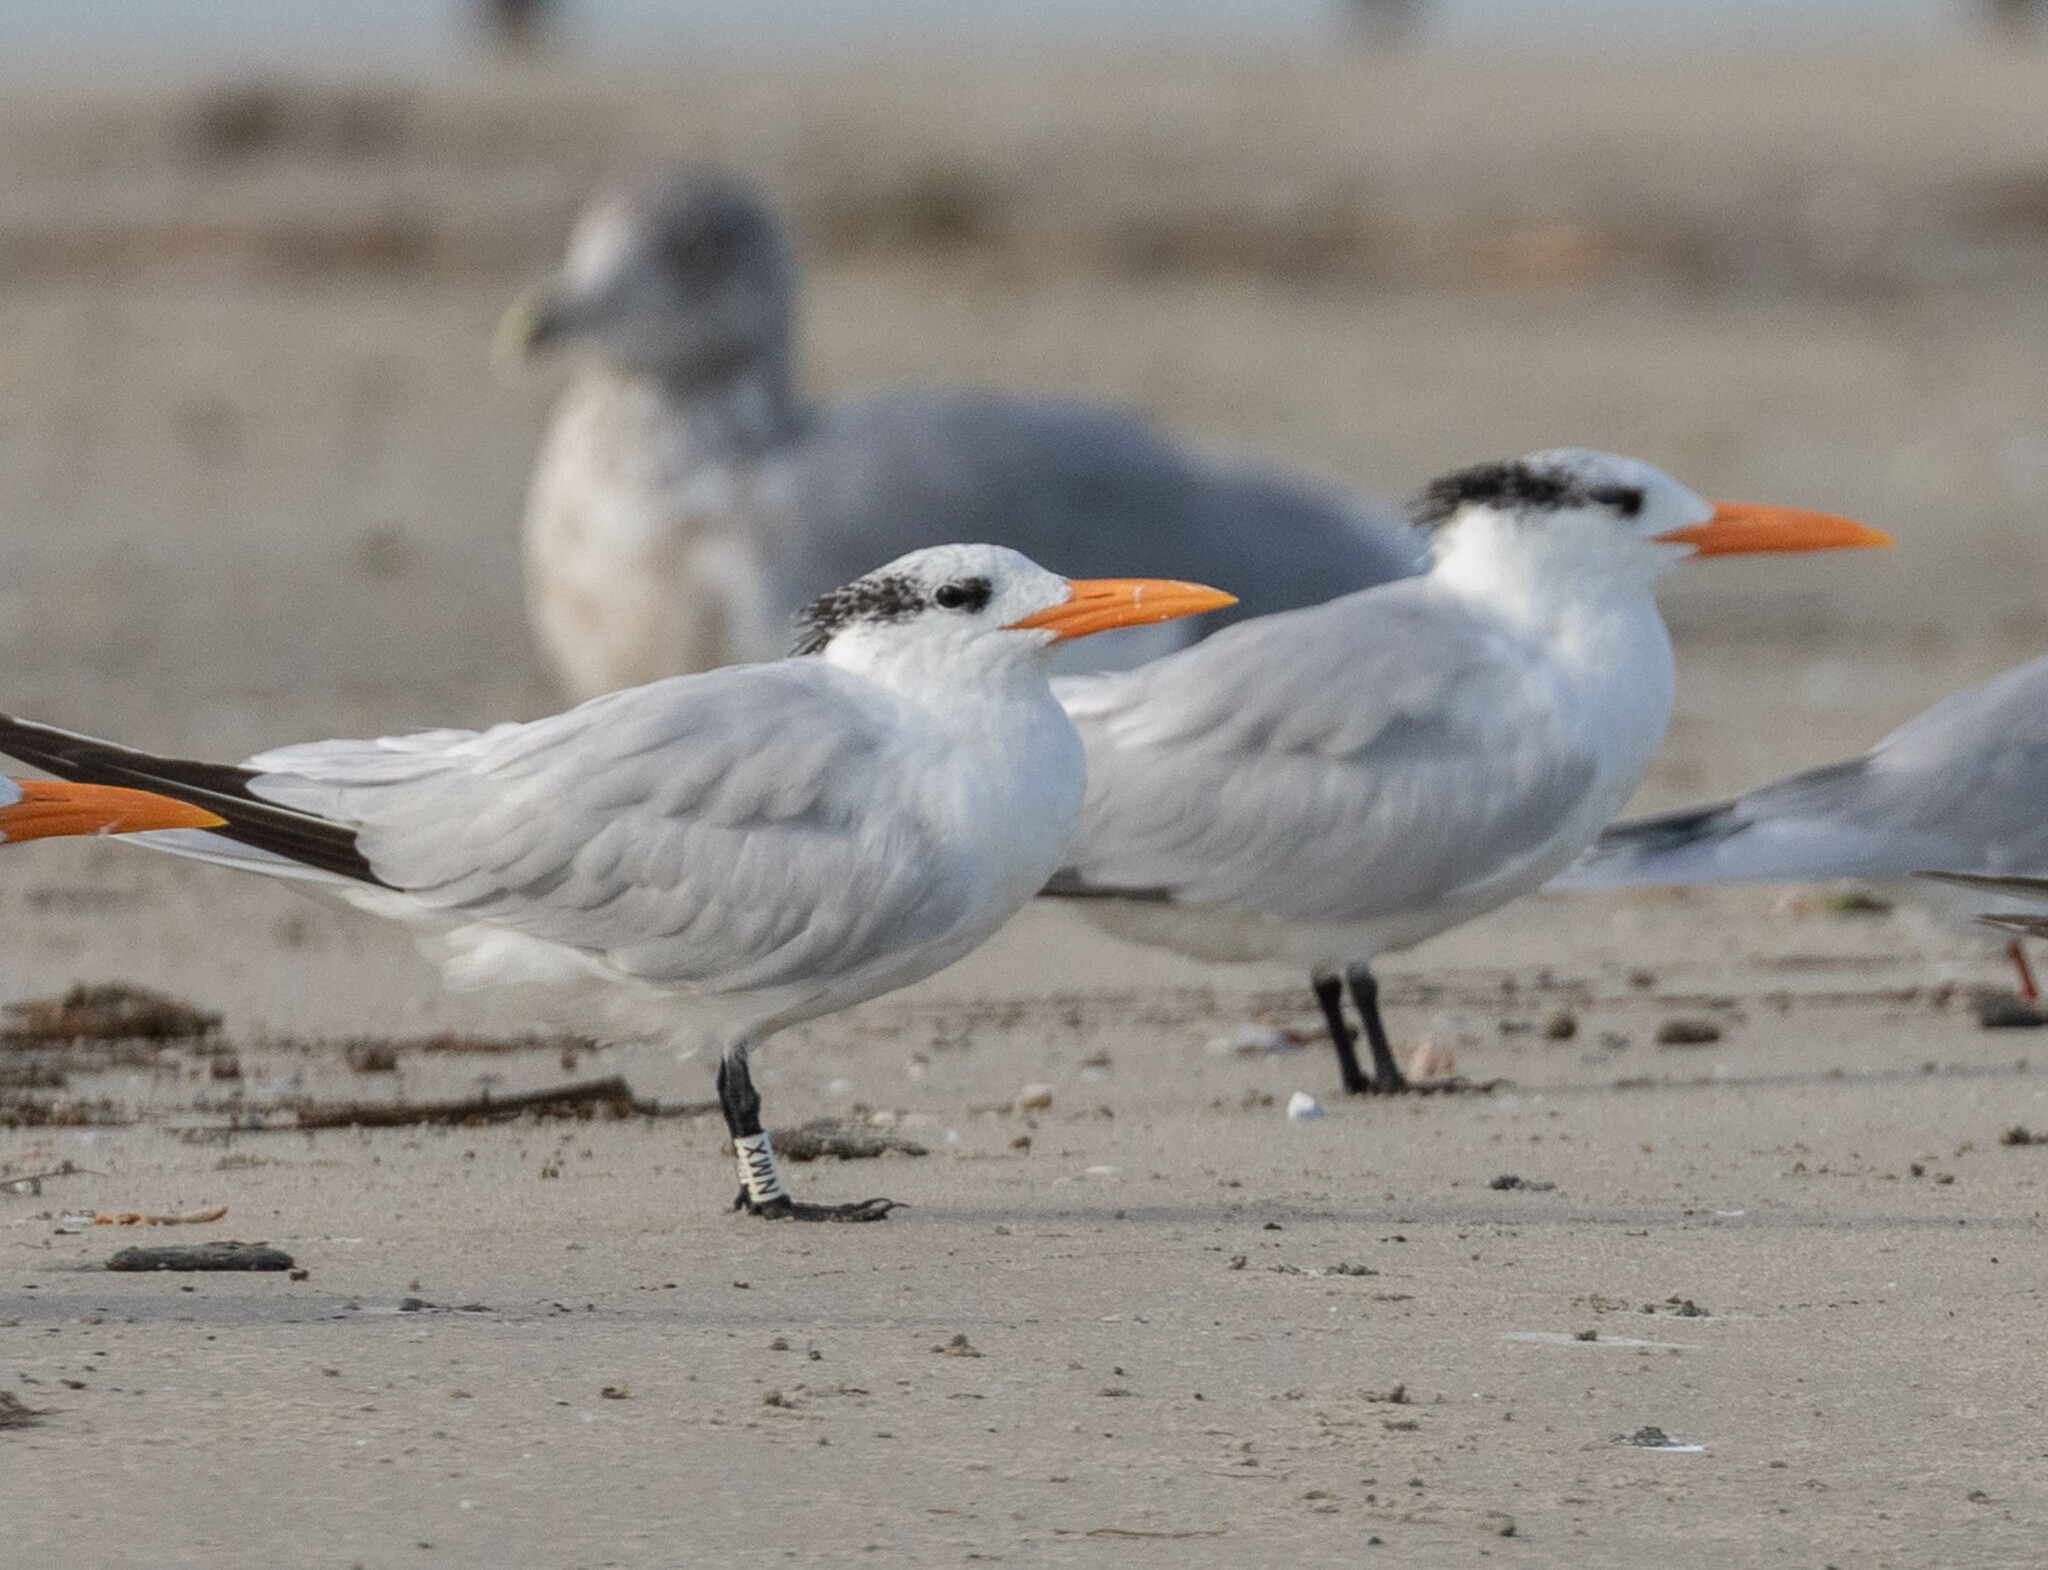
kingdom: Animalia
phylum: Chordata
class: Aves
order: Charadriiformes
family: Laridae
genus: Thalasseus
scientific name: Thalasseus maximus
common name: Royal tern
